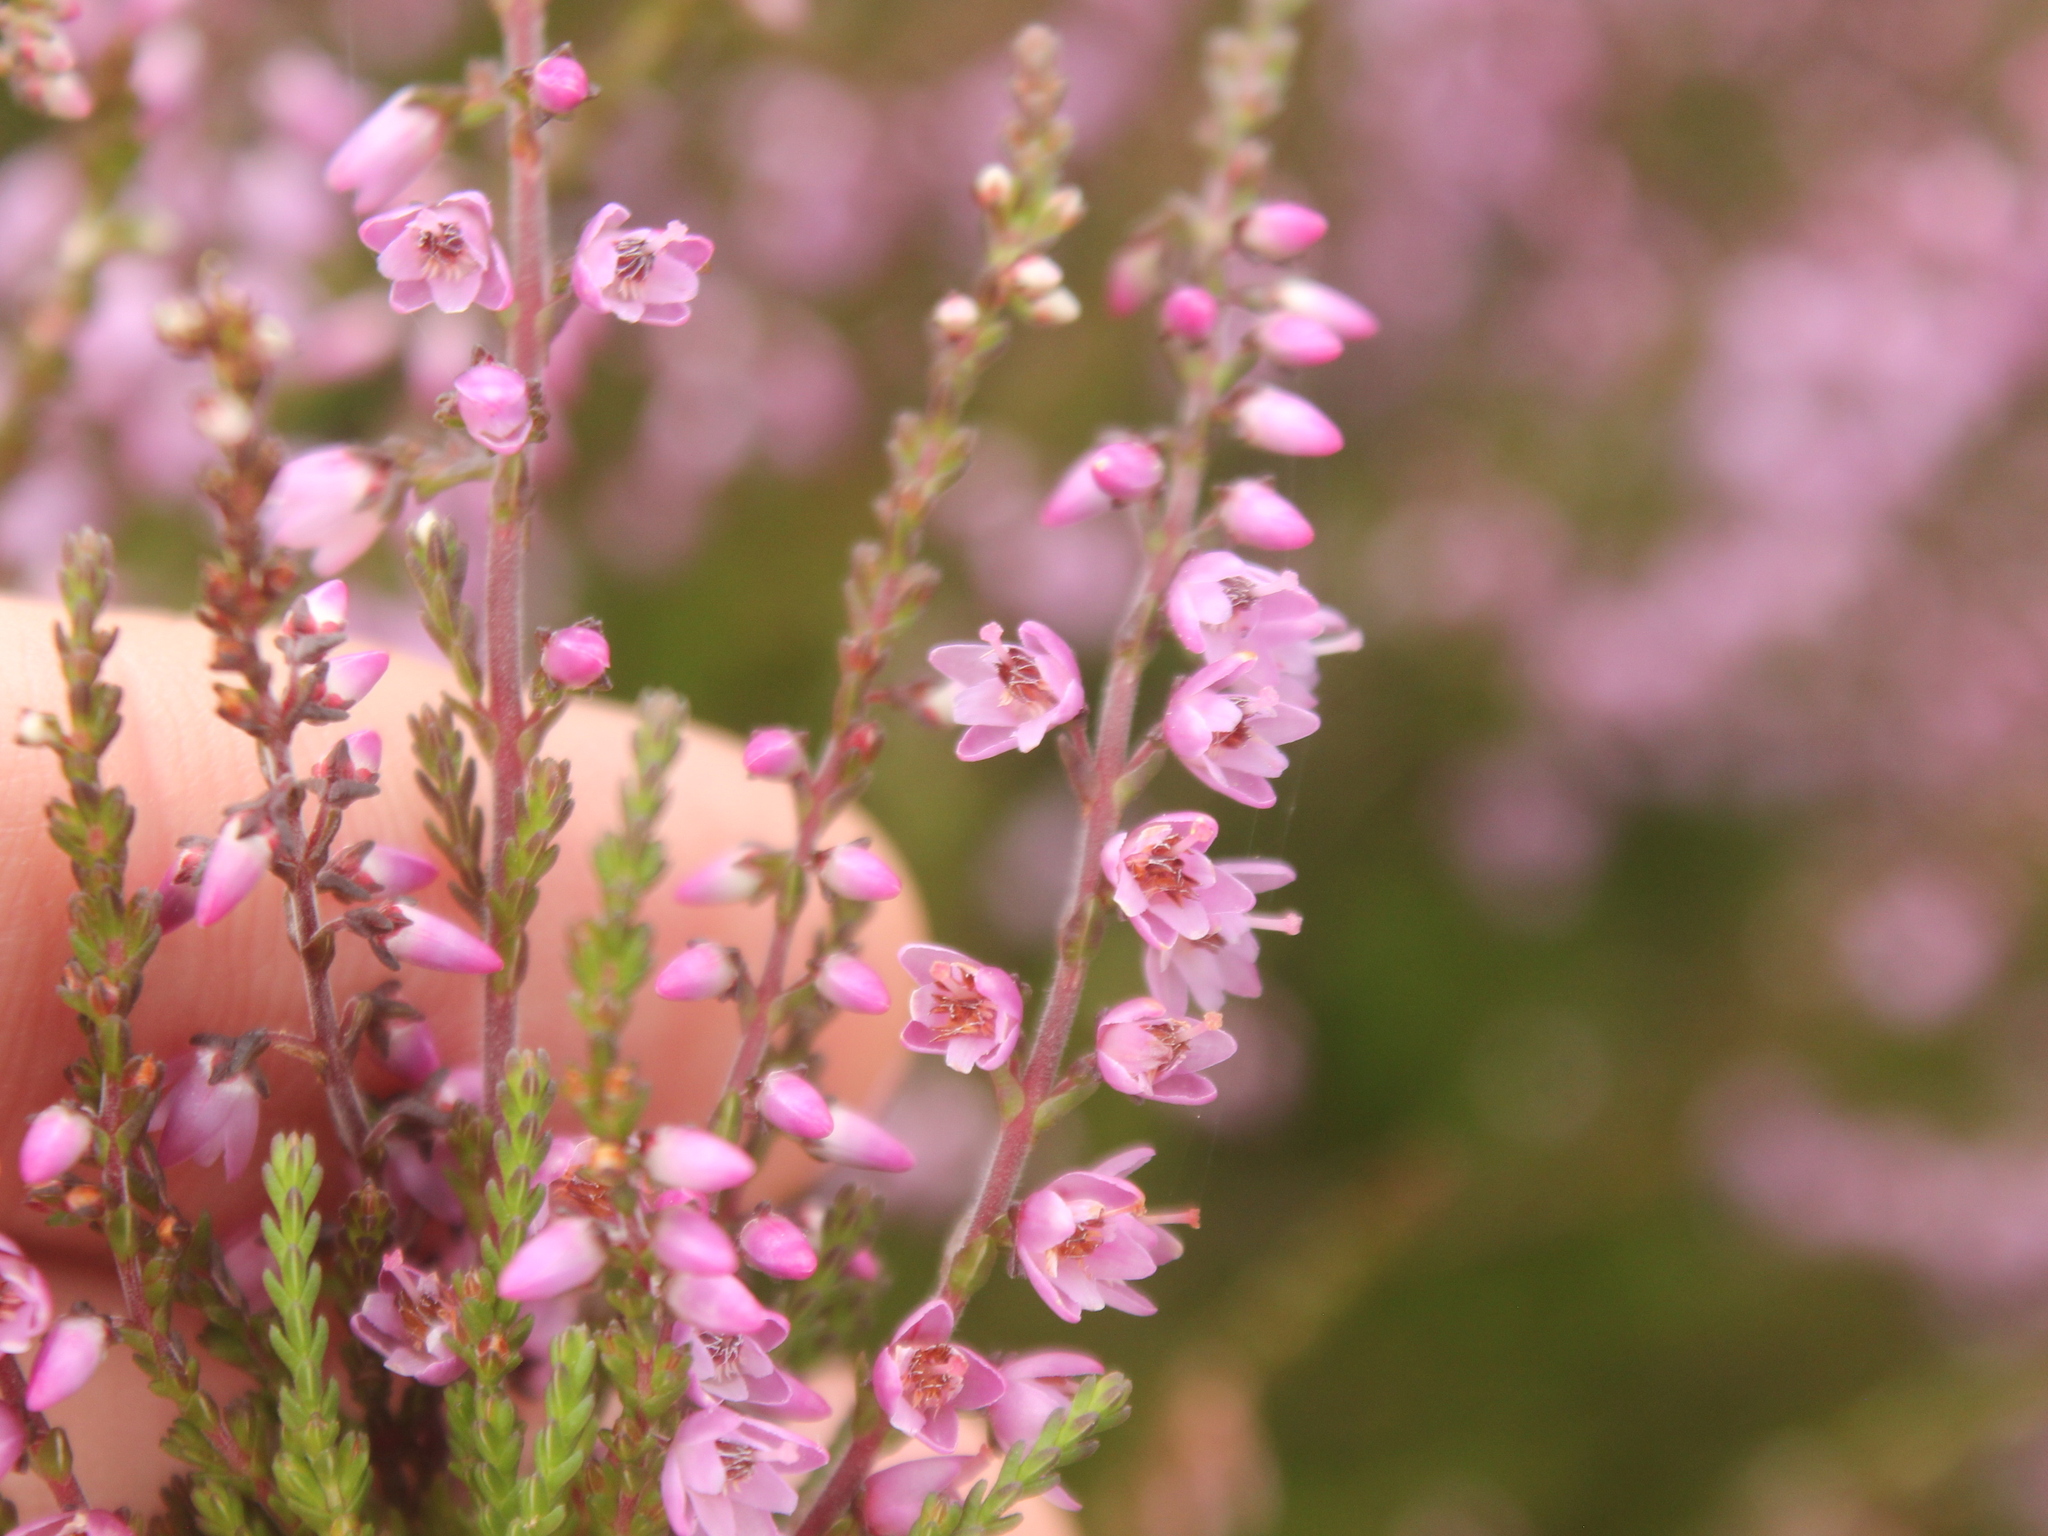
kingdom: Plantae
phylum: Tracheophyta
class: Magnoliopsida
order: Ericales
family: Ericaceae
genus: Calluna
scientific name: Calluna vulgaris
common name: Heather
